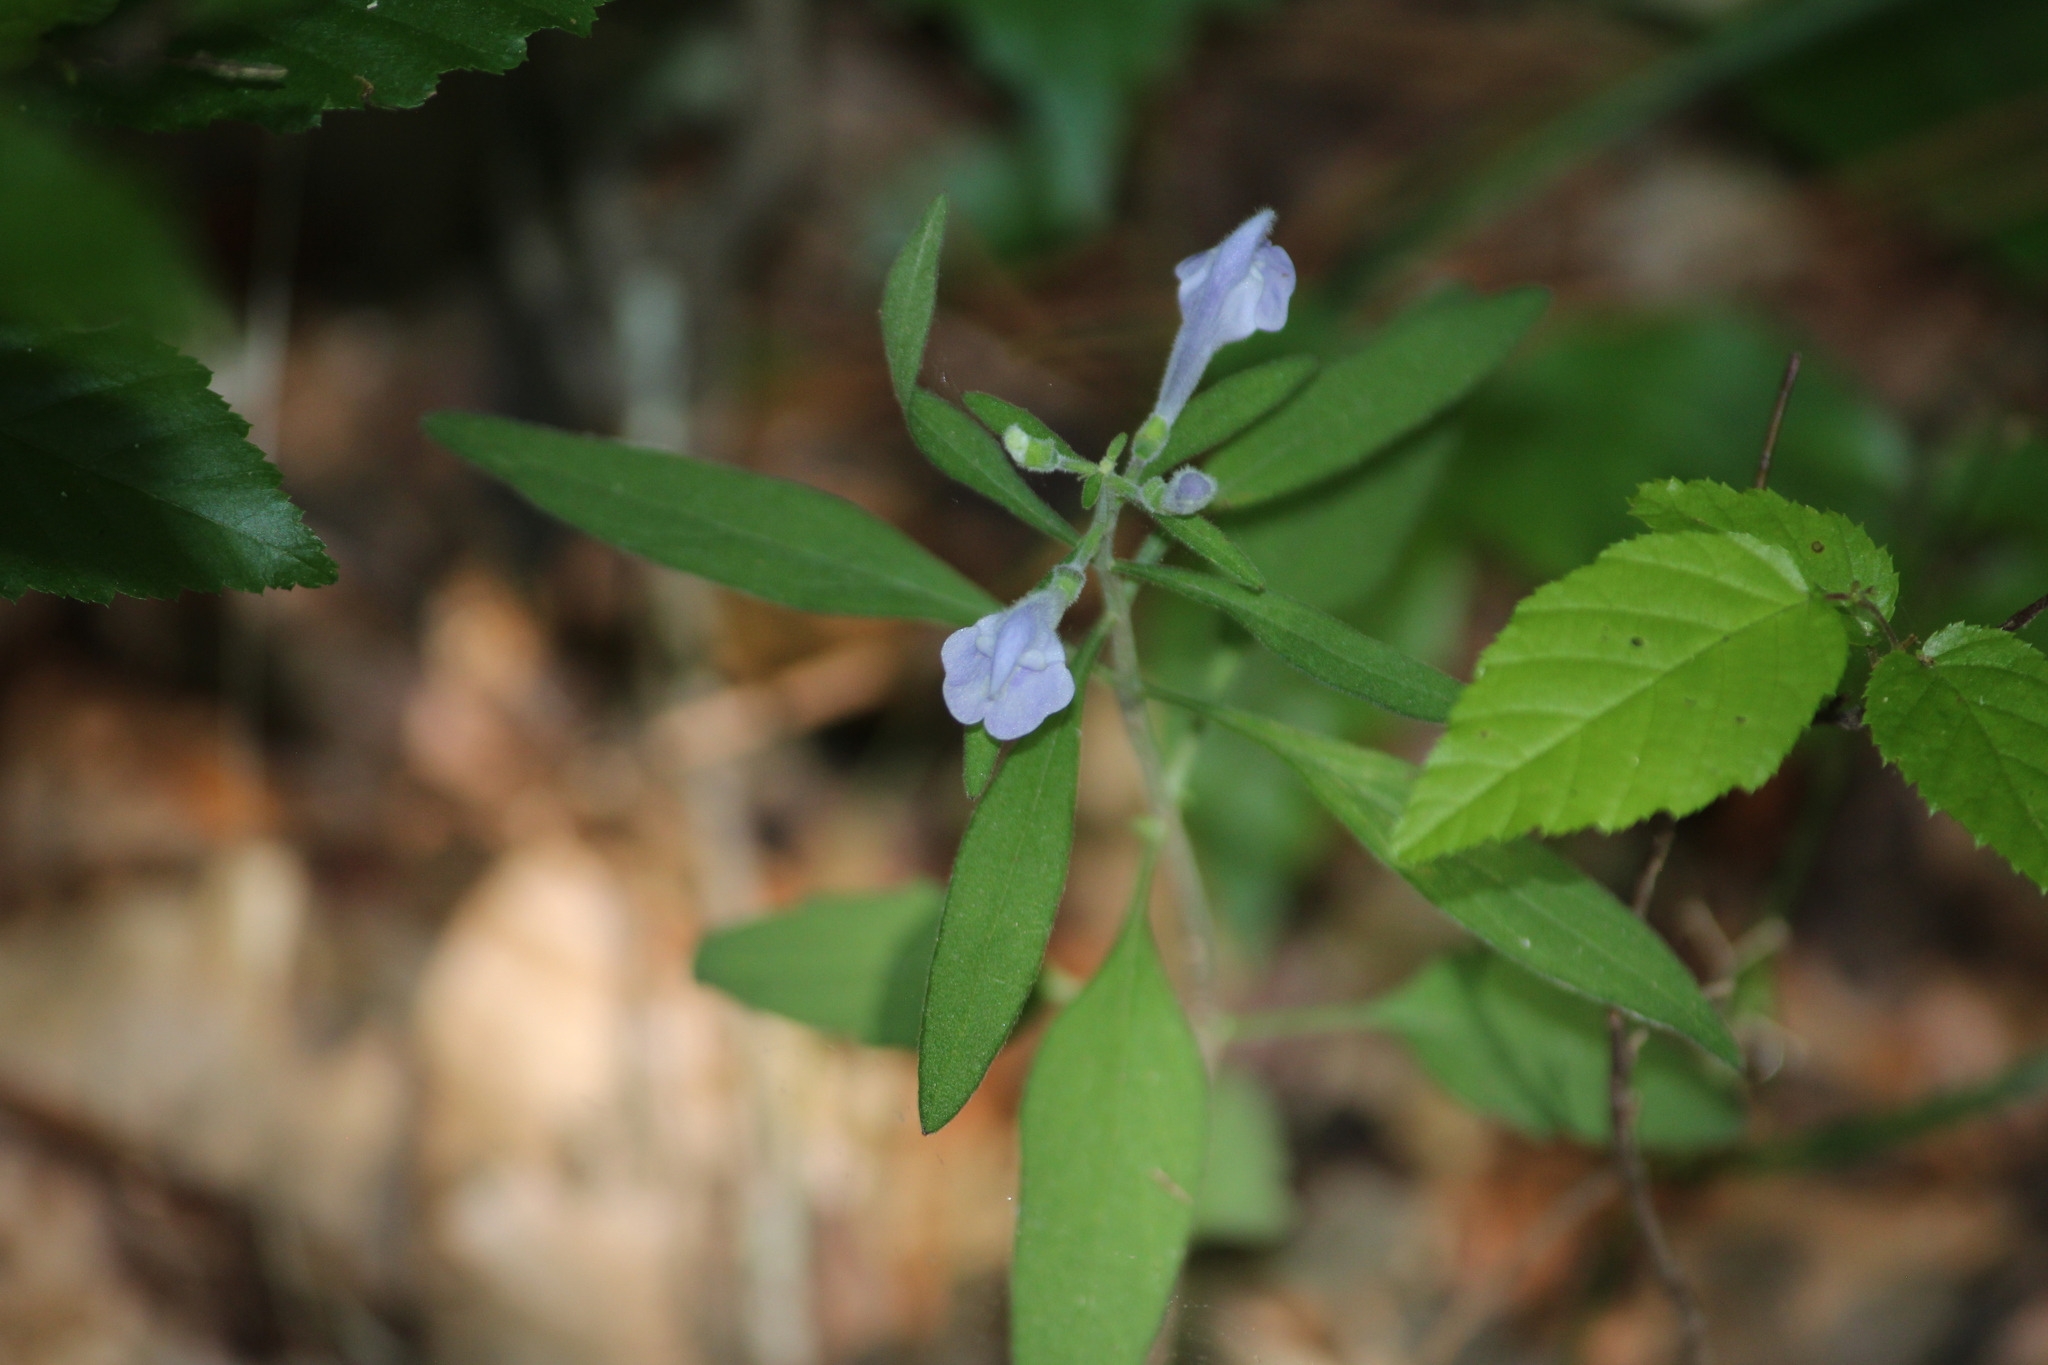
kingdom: Plantae
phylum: Tracheophyta
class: Magnoliopsida
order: Lamiales
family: Lamiaceae
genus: Scutellaria
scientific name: Scutellaria integrifolia
